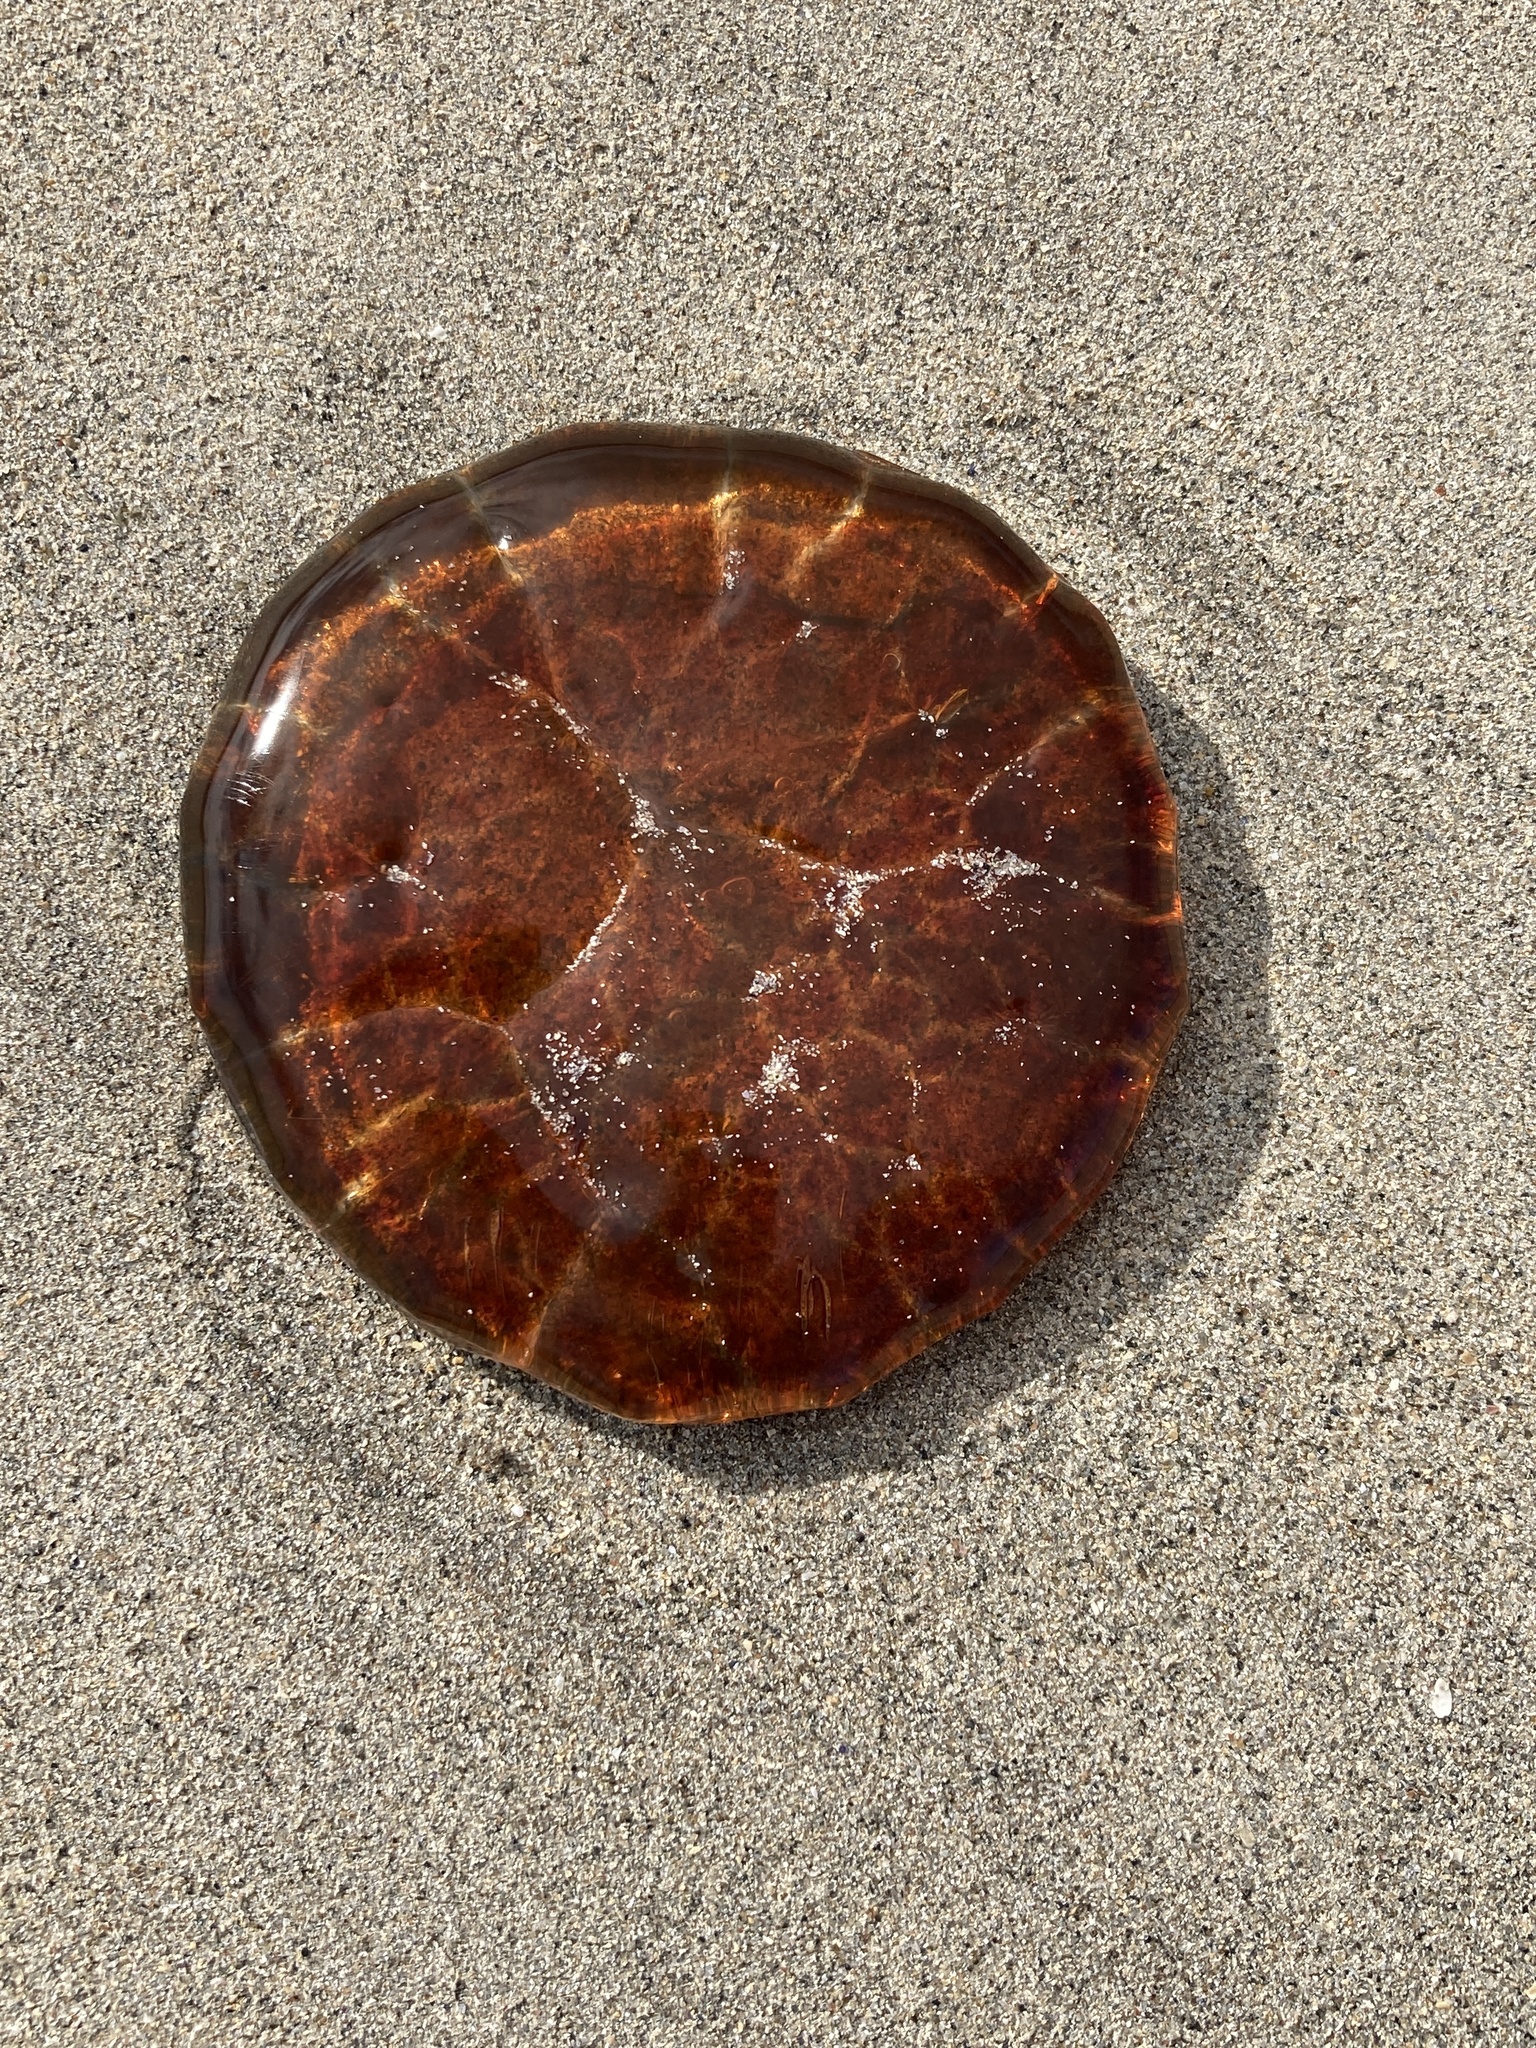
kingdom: Animalia
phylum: Cnidaria
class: Scyphozoa
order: Semaeostomeae
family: Cyaneidae
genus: Cyanea
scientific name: Cyanea capillata
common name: Lion's mane jellyfish
